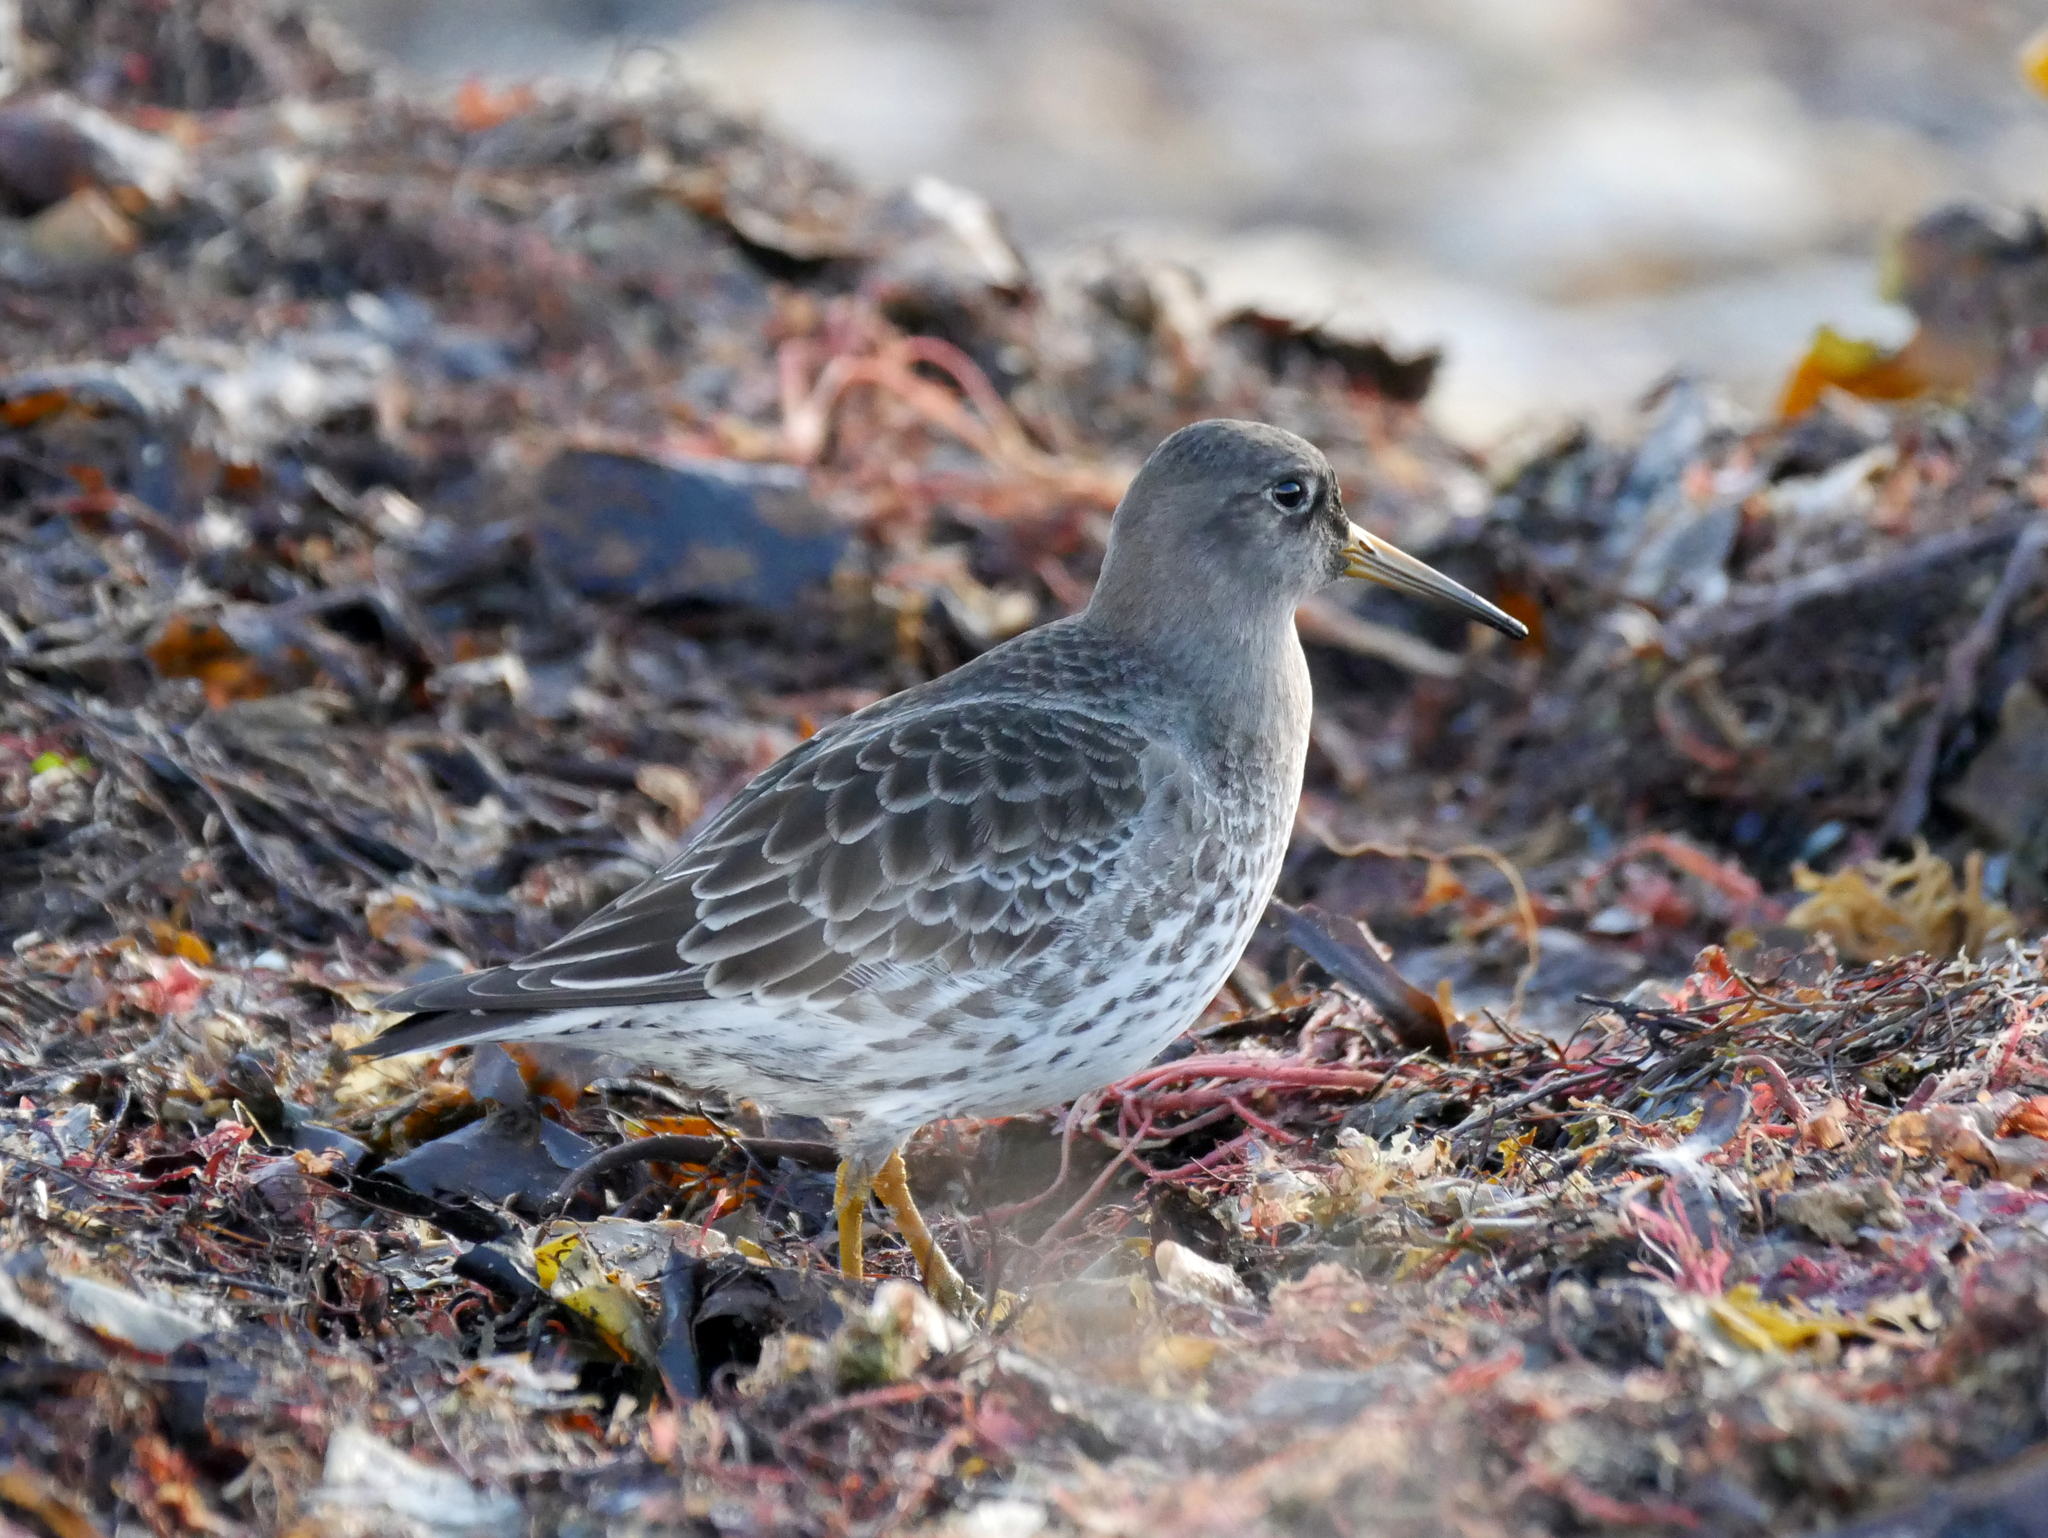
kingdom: Animalia
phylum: Chordata
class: Aves
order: Charadriiformes
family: Scolopacidae
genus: Calidris
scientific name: Calidris maritima
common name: Purple sandpiper
